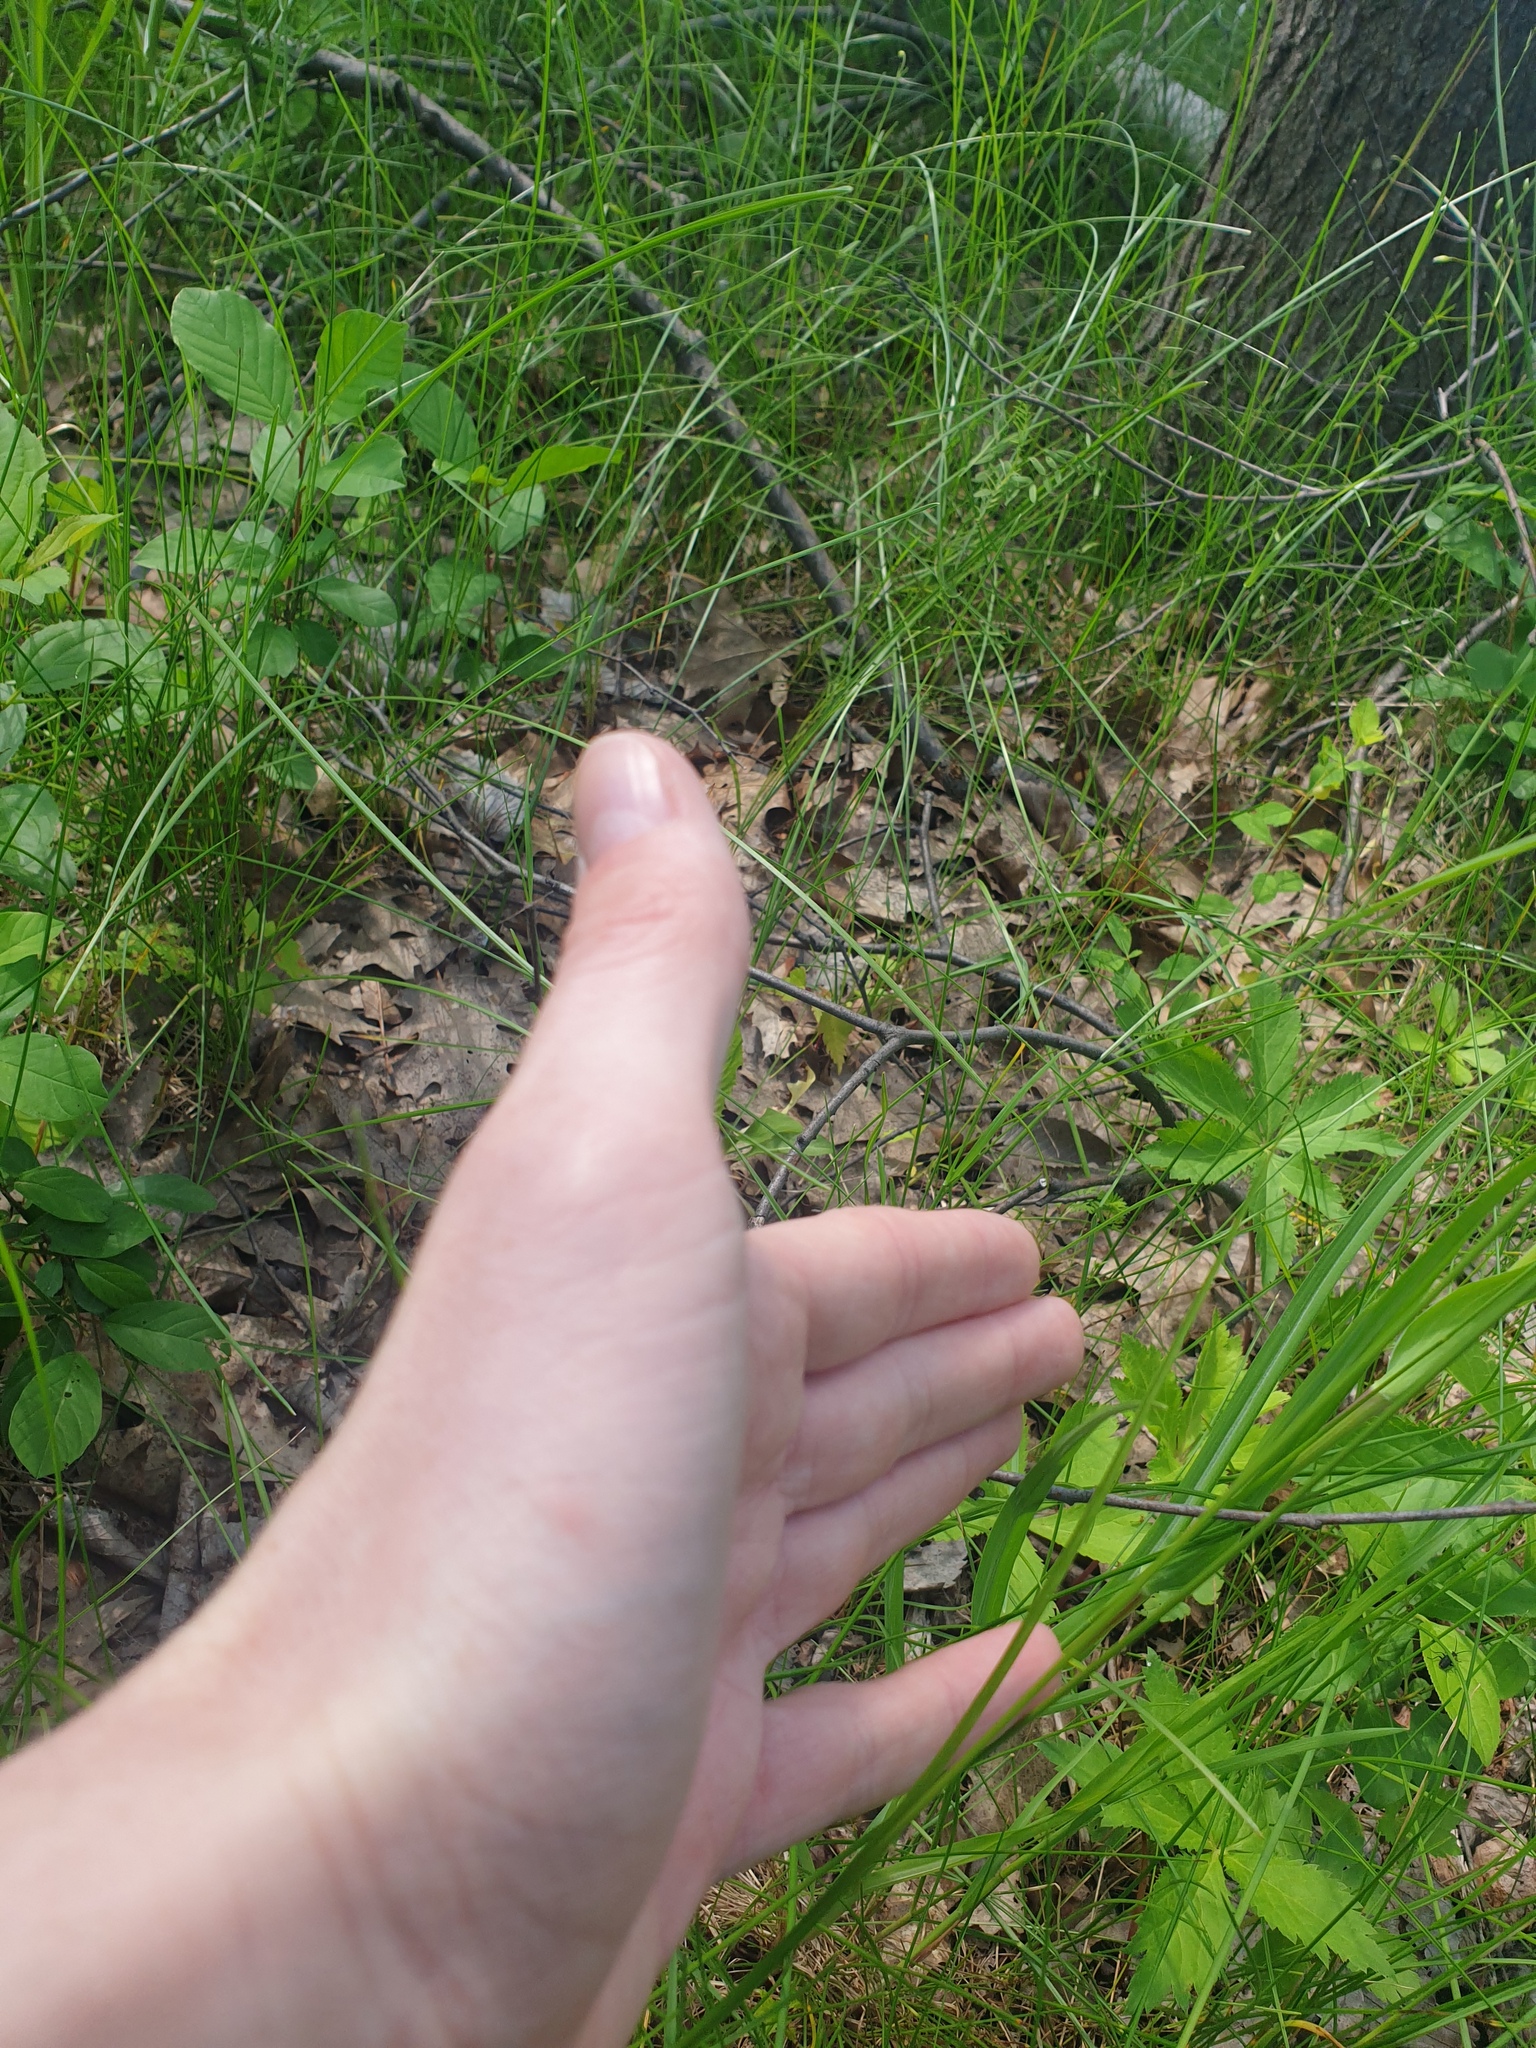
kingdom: Plantae
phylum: Tracheophyta
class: Magnoliopsida
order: Asterales
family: Asteraceae
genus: Tragopogon
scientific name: Tragopogon pratensis
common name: Goat's-beard
